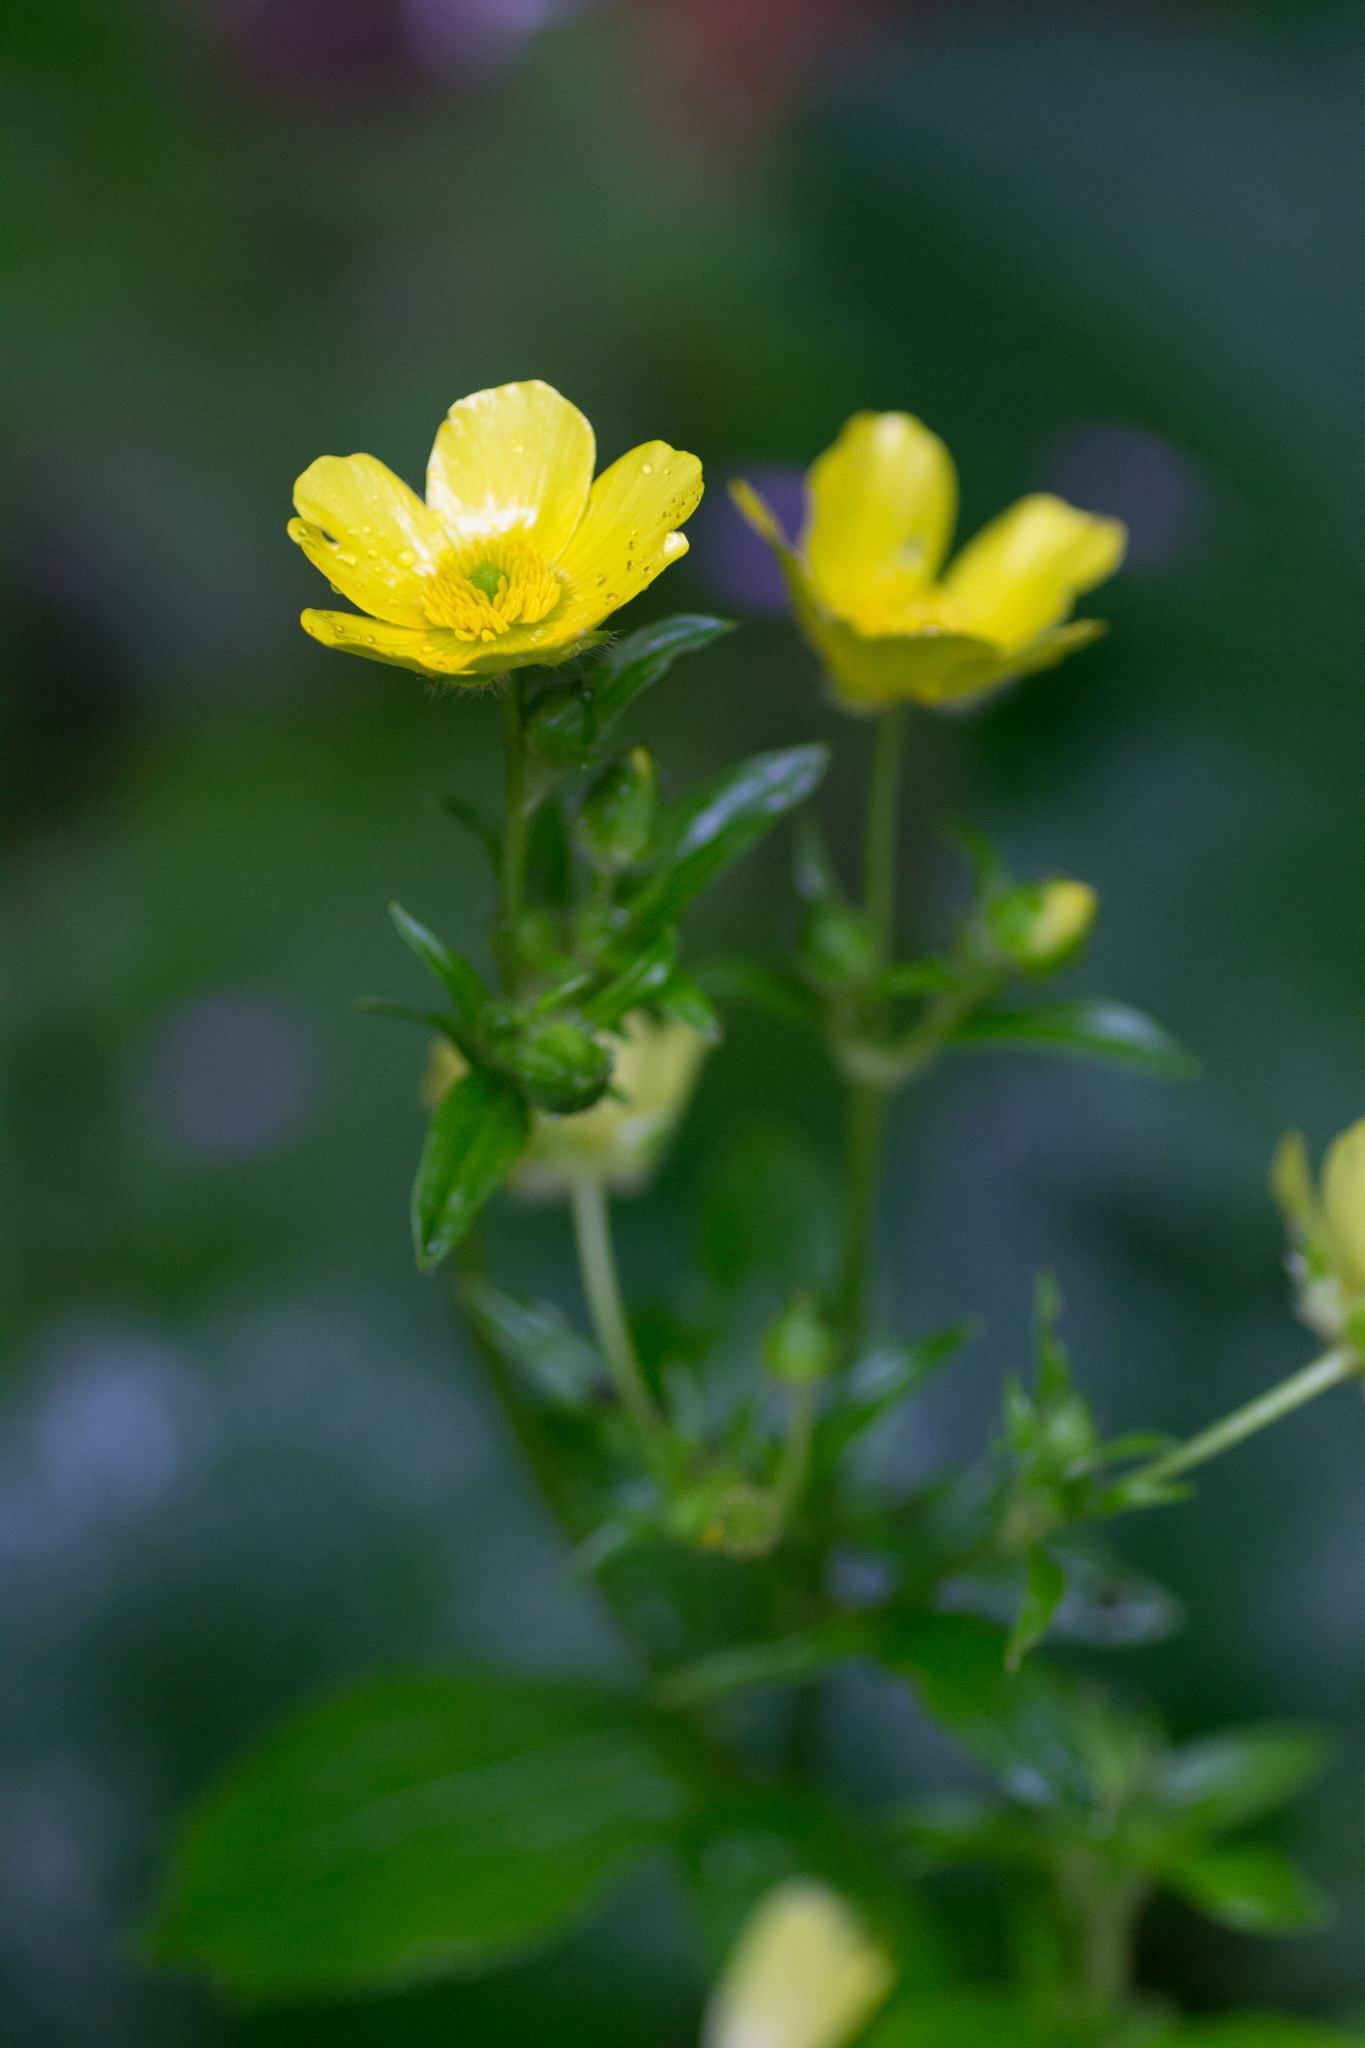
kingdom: Plantae
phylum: Tracheophyta
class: Magnoliopsida
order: Ranunculales
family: Ranunculaceae
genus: Ranunculus
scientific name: Ranunculus cortusifolius
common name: Azores buttercup
